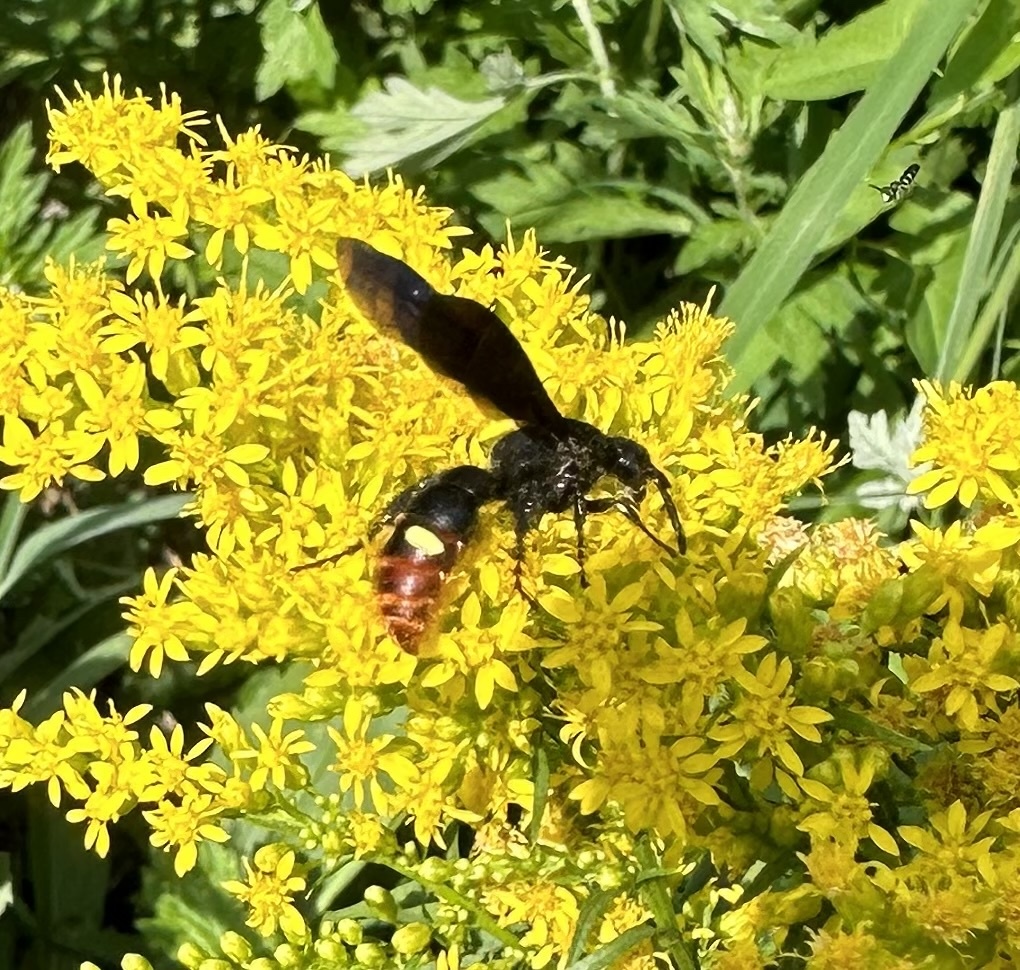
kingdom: Animalia
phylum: Arthropoda
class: Insecta
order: Hymenoptera
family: Scoliidae
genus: Scolia
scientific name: Scolia dubia
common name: Blue-winged scoliid wasp
